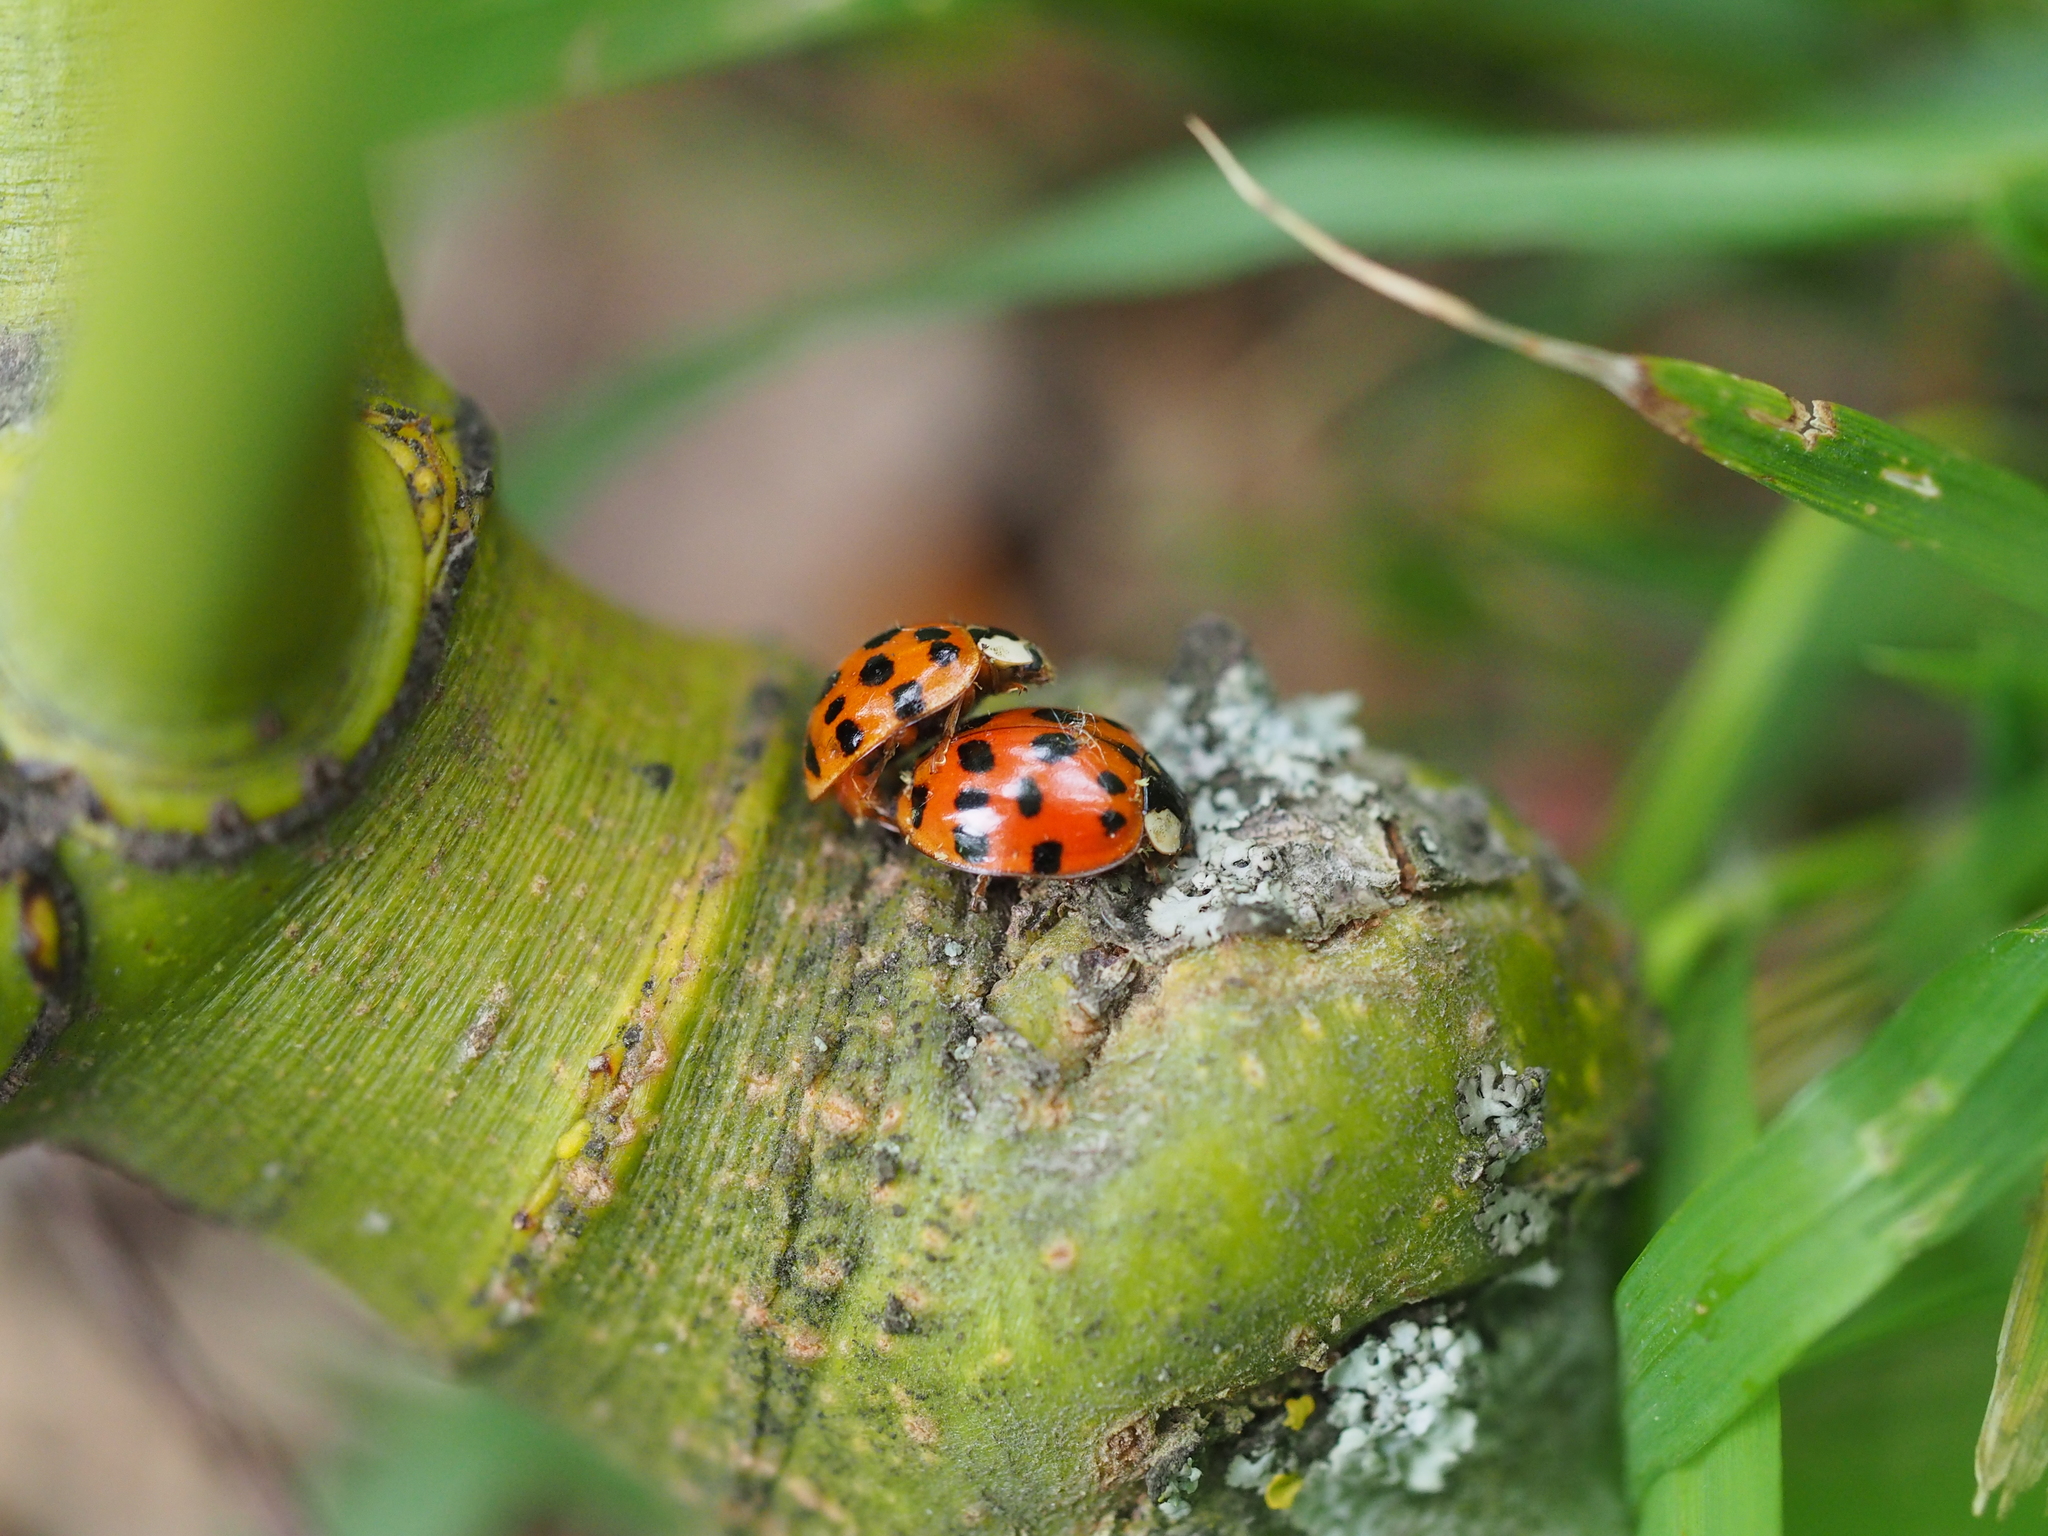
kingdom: Animalia
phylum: Arthropoda
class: Insecta
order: Coleoptera
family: Coccinellidae
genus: Harmonia
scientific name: Harmonia axyridis
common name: Harlequin ladybird
